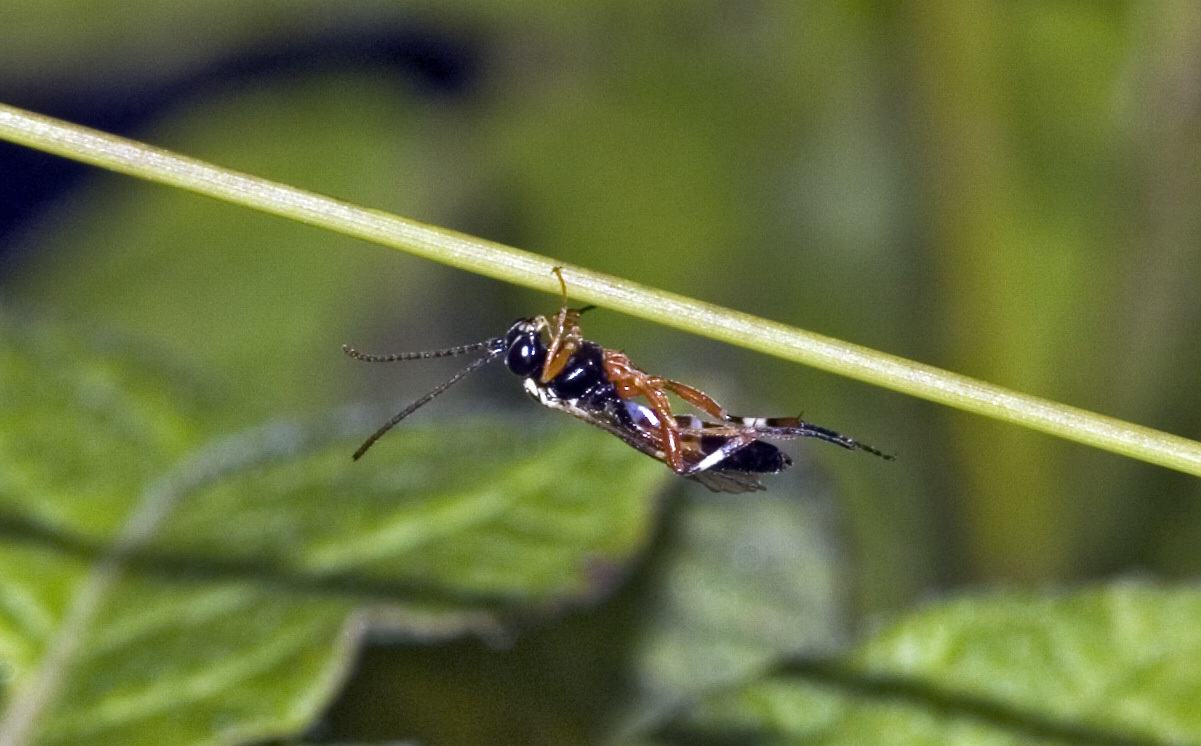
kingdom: Animalia
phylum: Arthropoda
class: Insecta
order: Hymenoptera
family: Ichneumonidae
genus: Diplazon
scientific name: Diplazon laetatorius
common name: Parasitoid wasp
